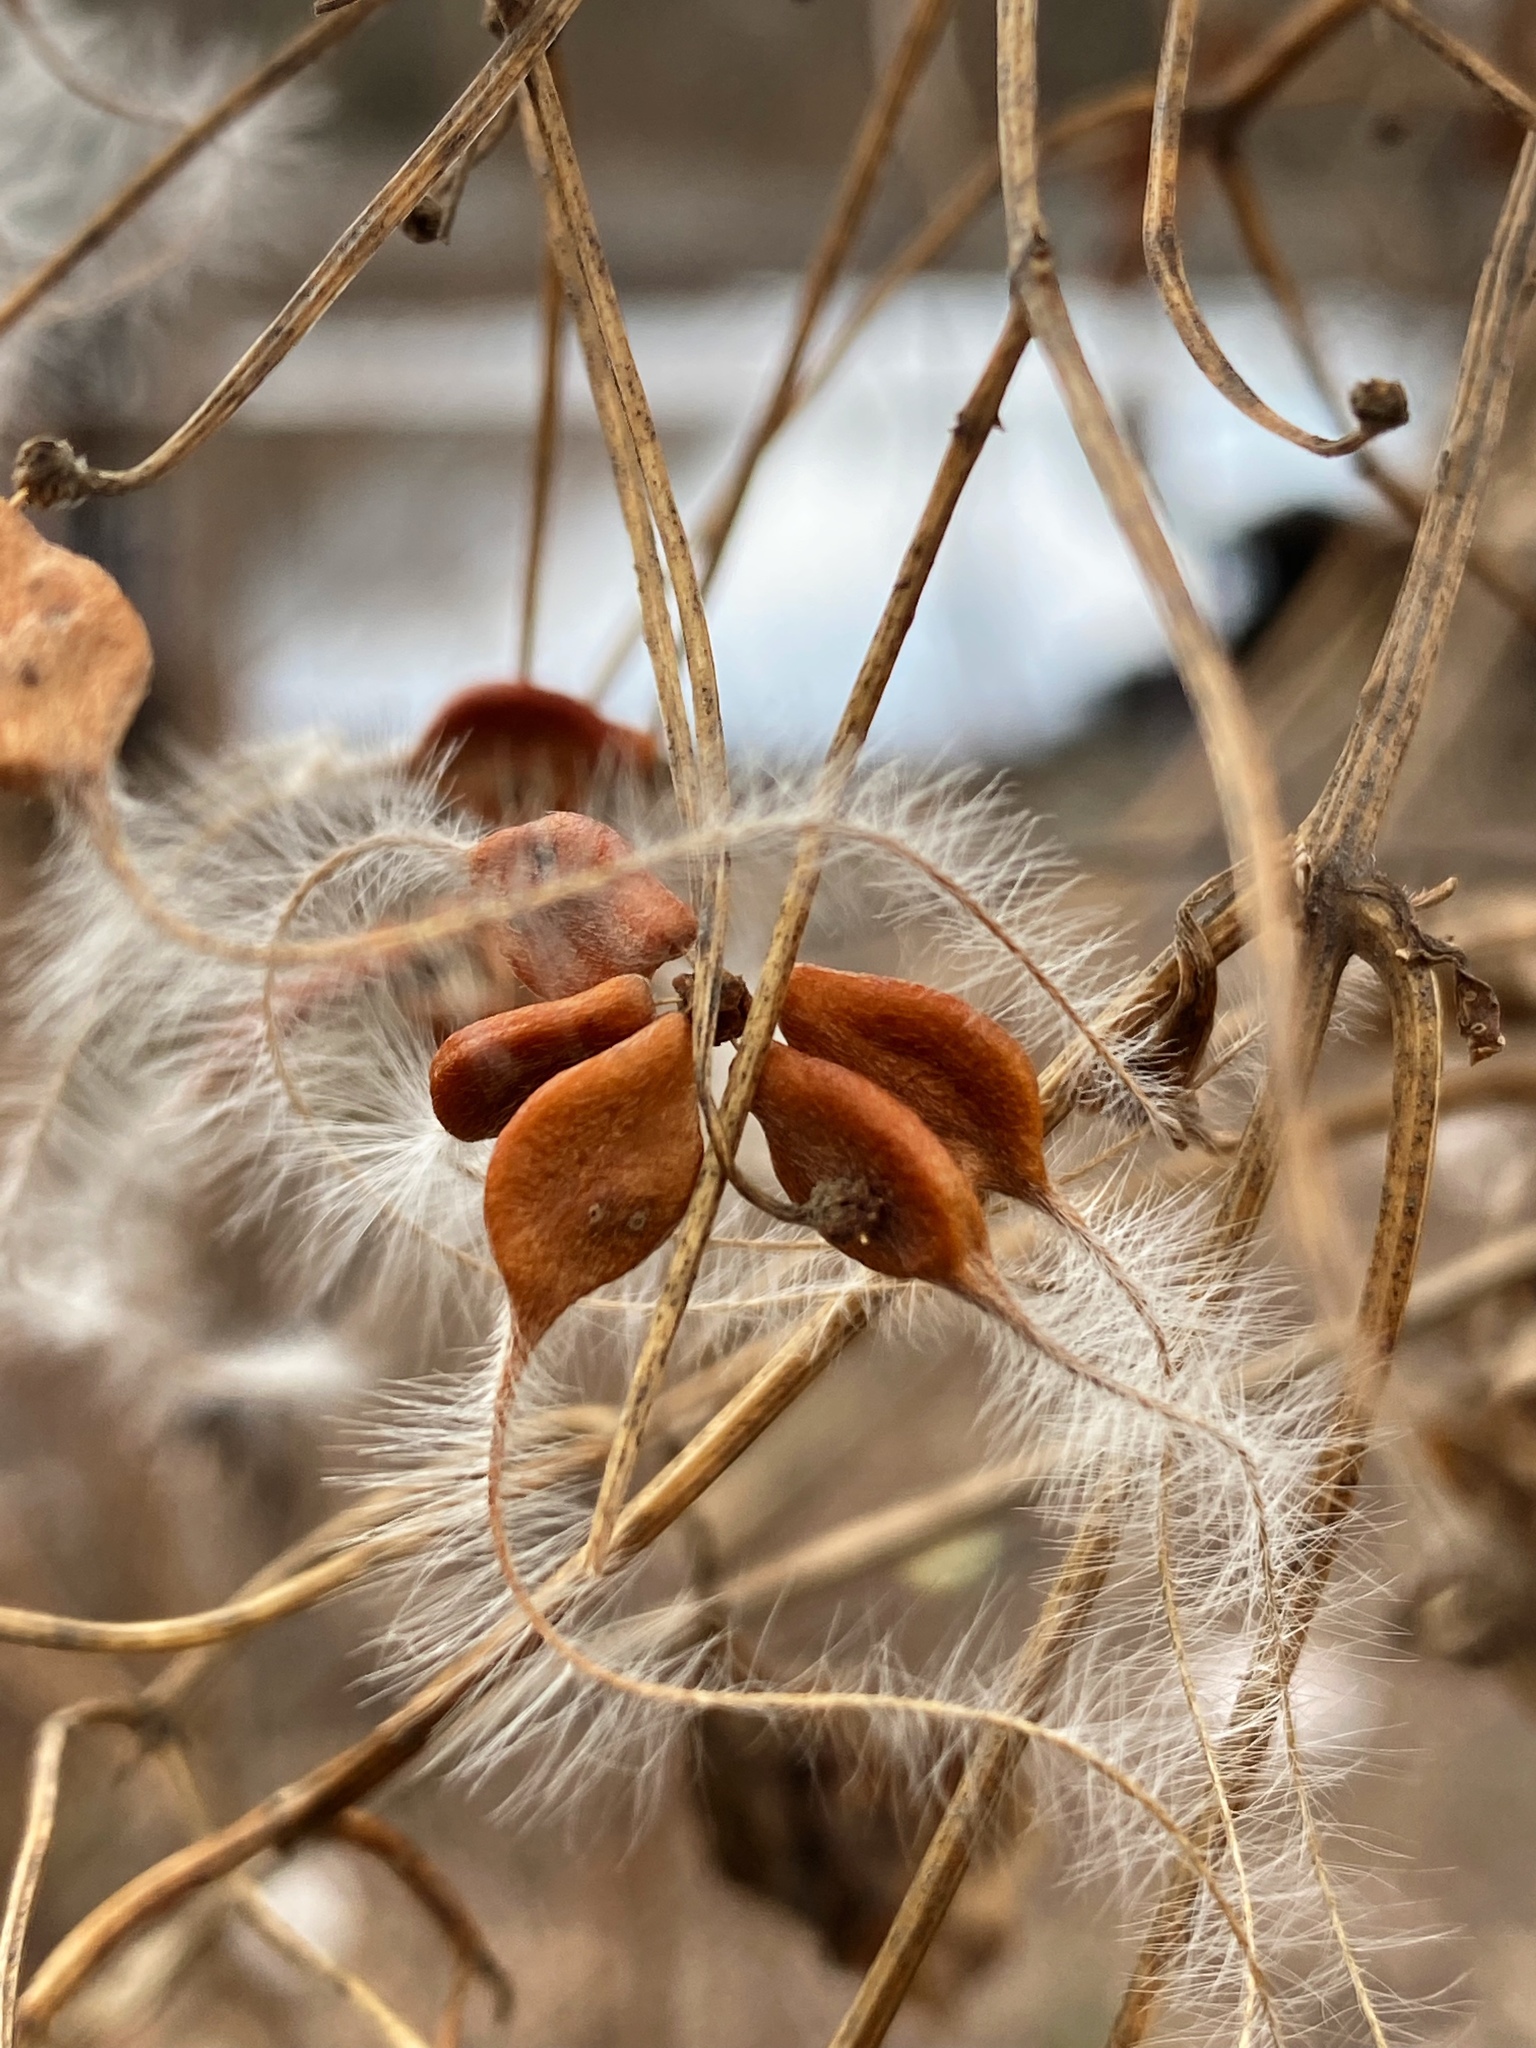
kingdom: Plantae
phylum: Tracheophyta
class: Magnoliopsida
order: Ranunculales
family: Ranunculaceae
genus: Clematis
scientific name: Clematis terniflora
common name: Sweet autumn clematis
